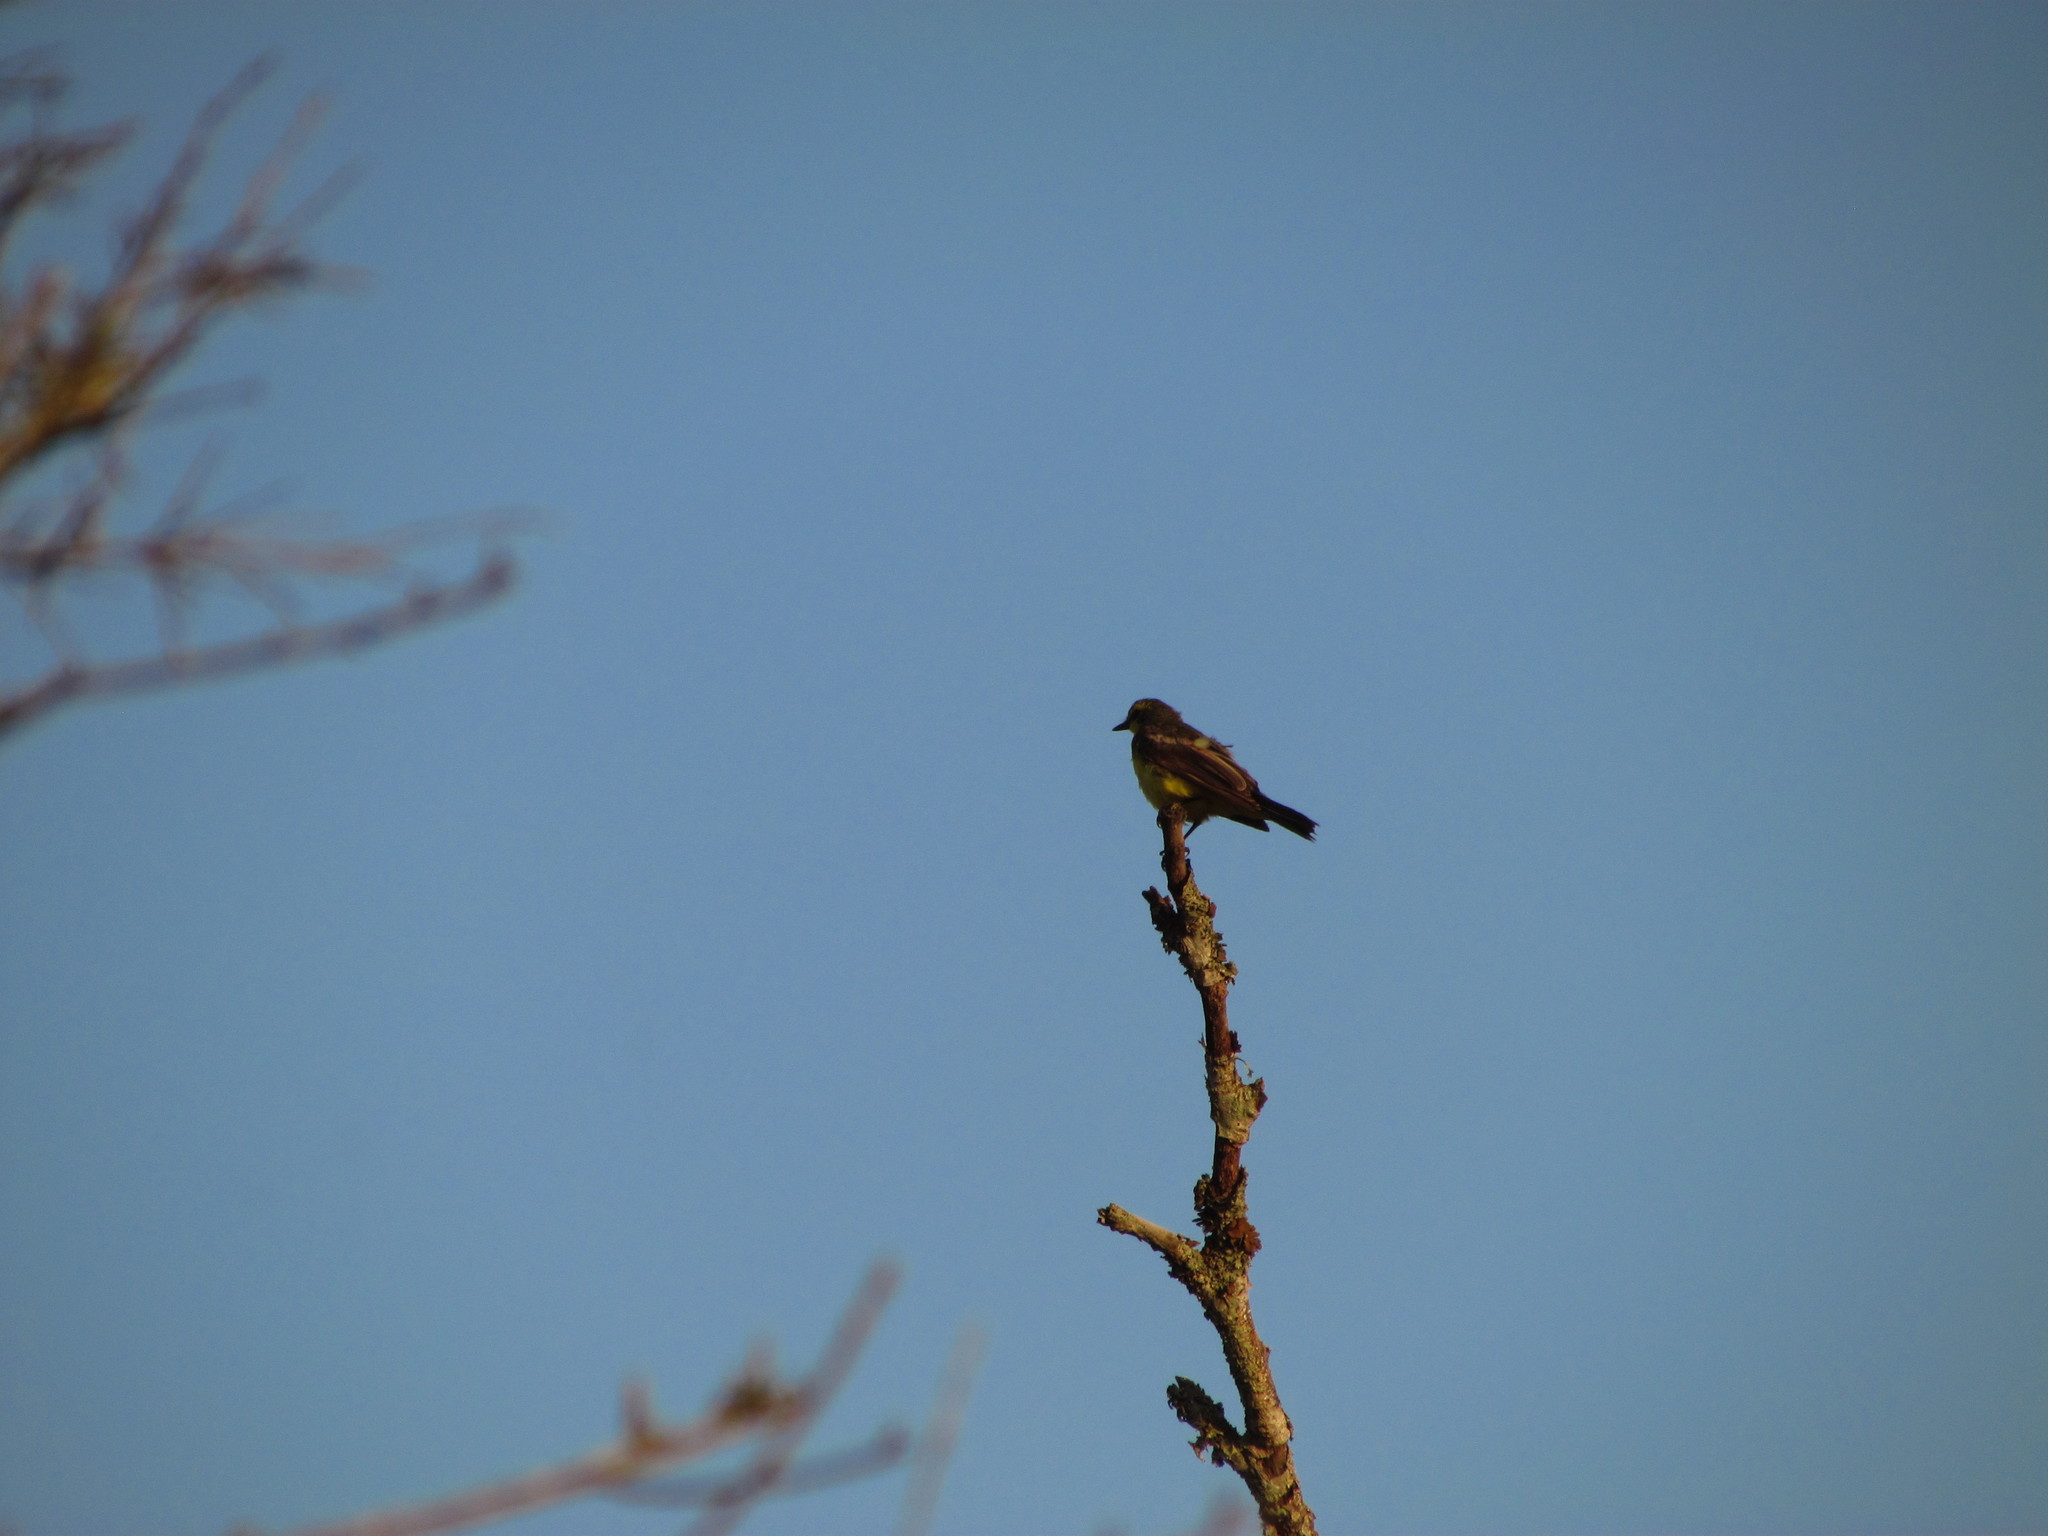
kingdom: Animalia
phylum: Chordata
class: Aves
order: Passeriformes
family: Tyrannidae
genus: Satrapa
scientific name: Satrapa icterophrys
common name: Yellow-browed tyrant
